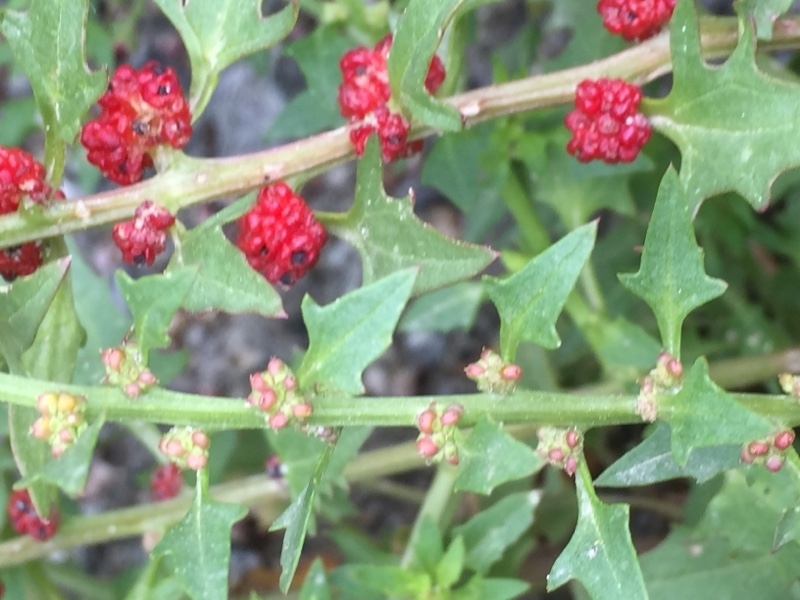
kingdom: Plantae
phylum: Tracheophyta
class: Magnoliopsida
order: Caryophyllales
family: Amaranthaceae
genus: Blitum
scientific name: Blitum virgatum
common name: Strawberry goosefoot
